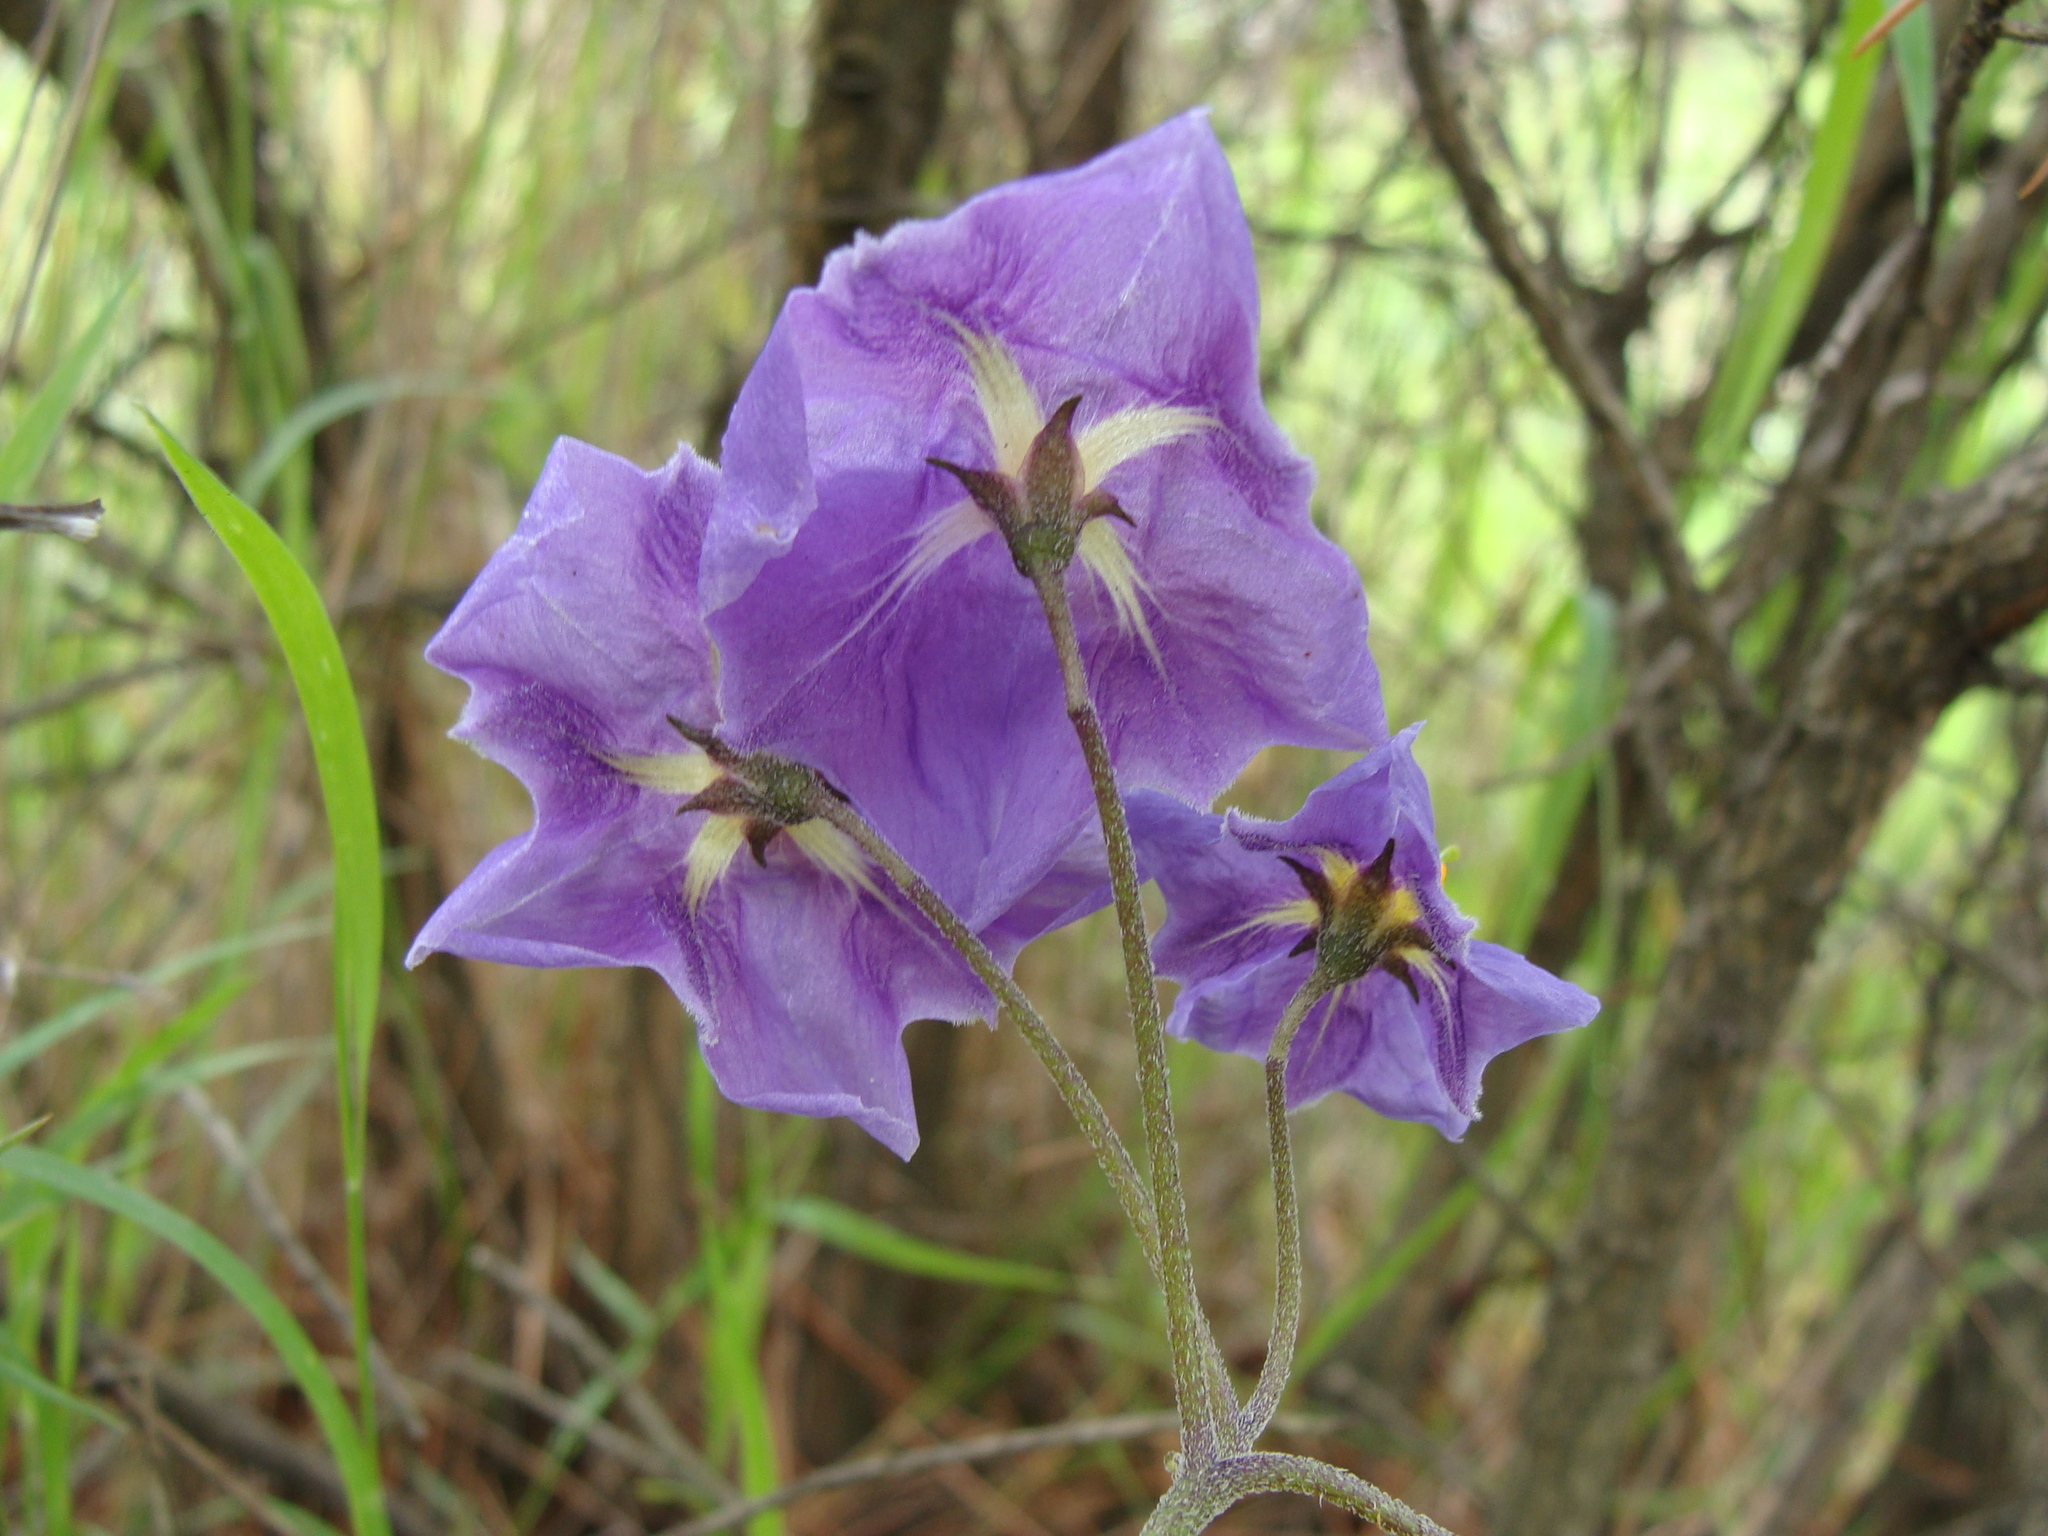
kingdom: Plantae
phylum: Tracheophyta
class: Magnoliopsida
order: Solanales
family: Solanaceae
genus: Solanum
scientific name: Solanum demissum
